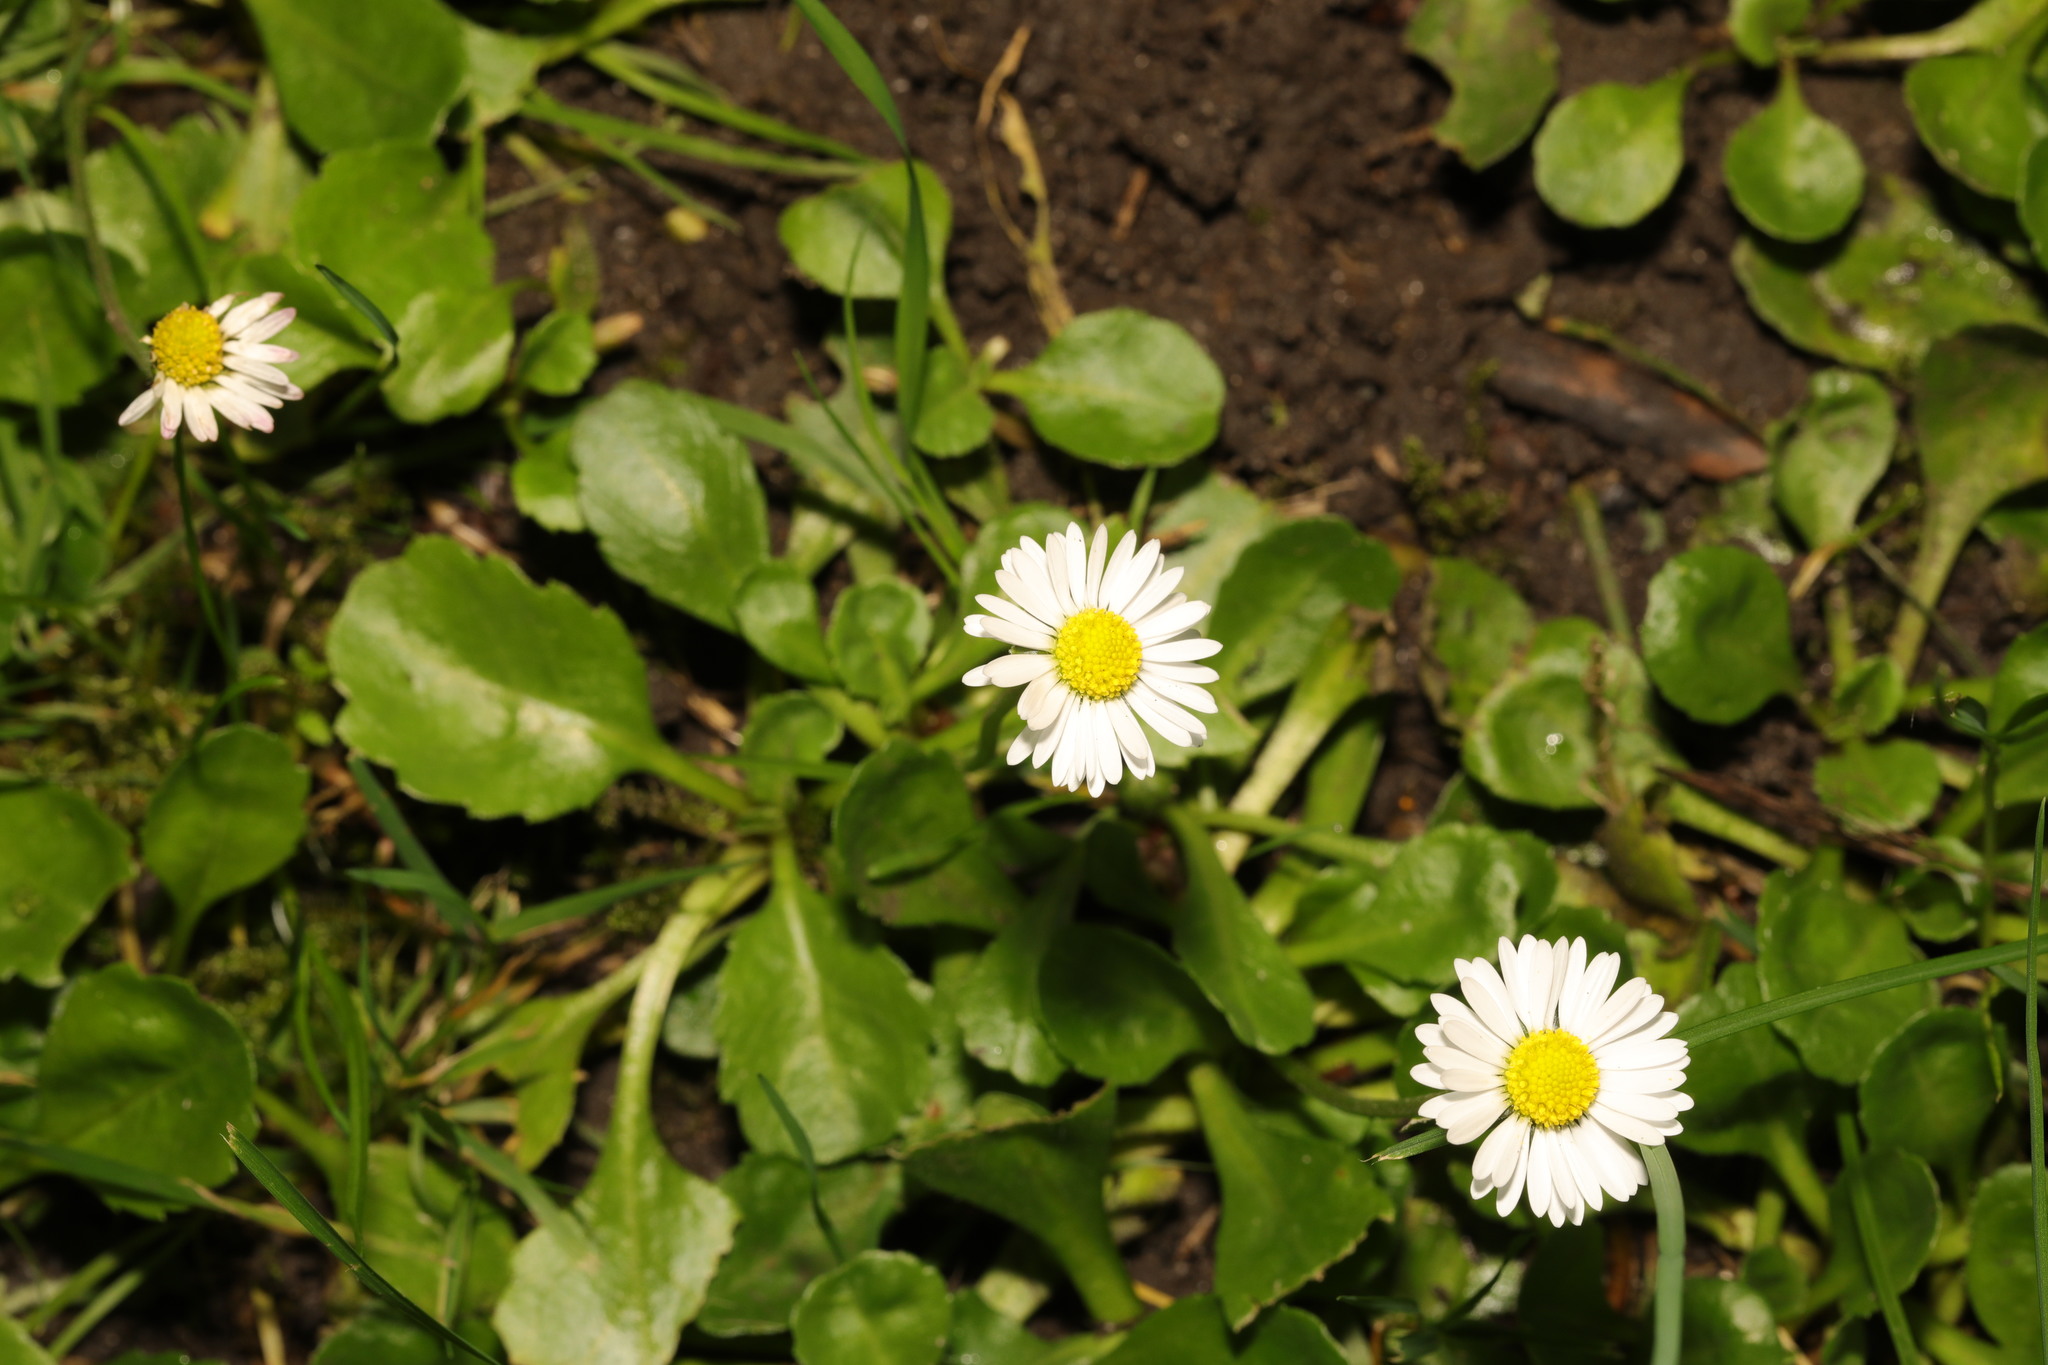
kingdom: Plantae
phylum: Tracheophyta
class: Magnoliopsida
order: Asterales
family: Asteraceae
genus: Bellis
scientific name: Bellis perennis
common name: Lawndaisy
